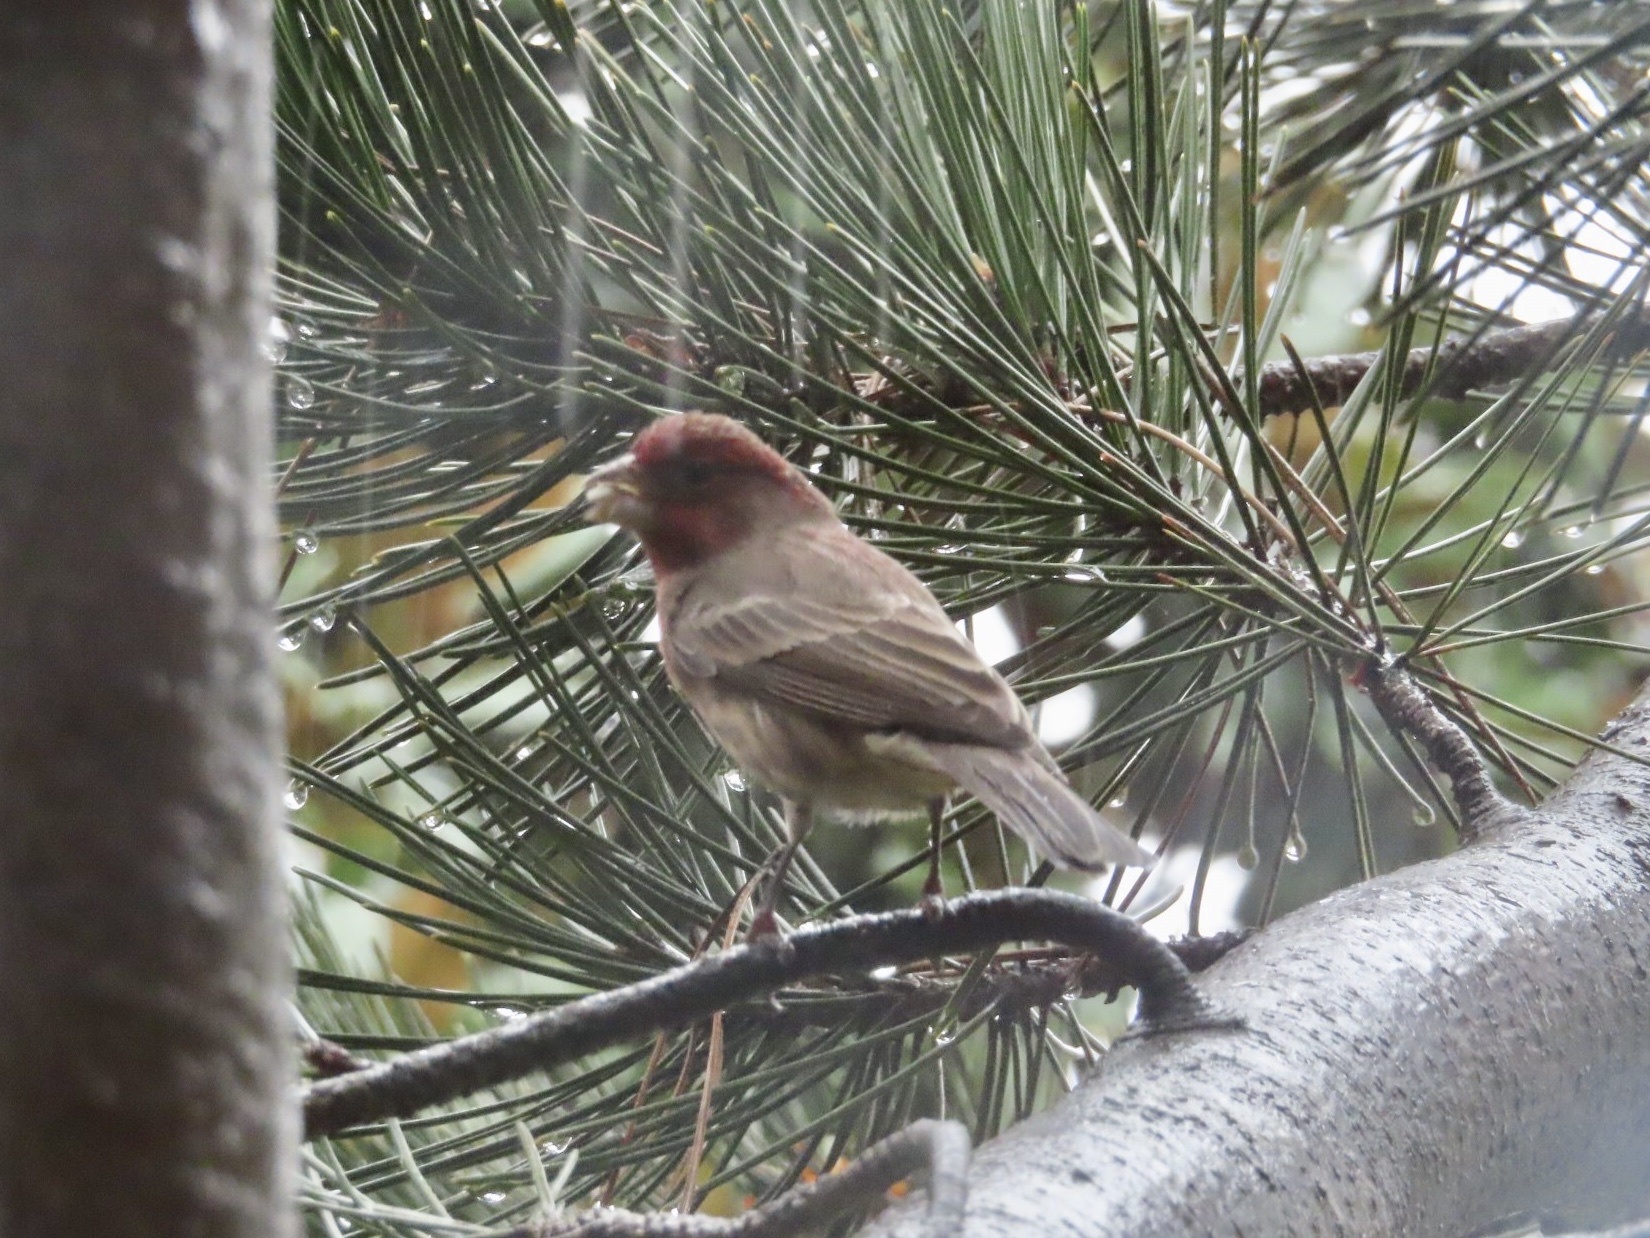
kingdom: Animalia
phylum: Chordata
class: Aves
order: Passeriformes
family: Fringillidae
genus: Haemorhous
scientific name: Haemorhous mexicanus
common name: House finch
